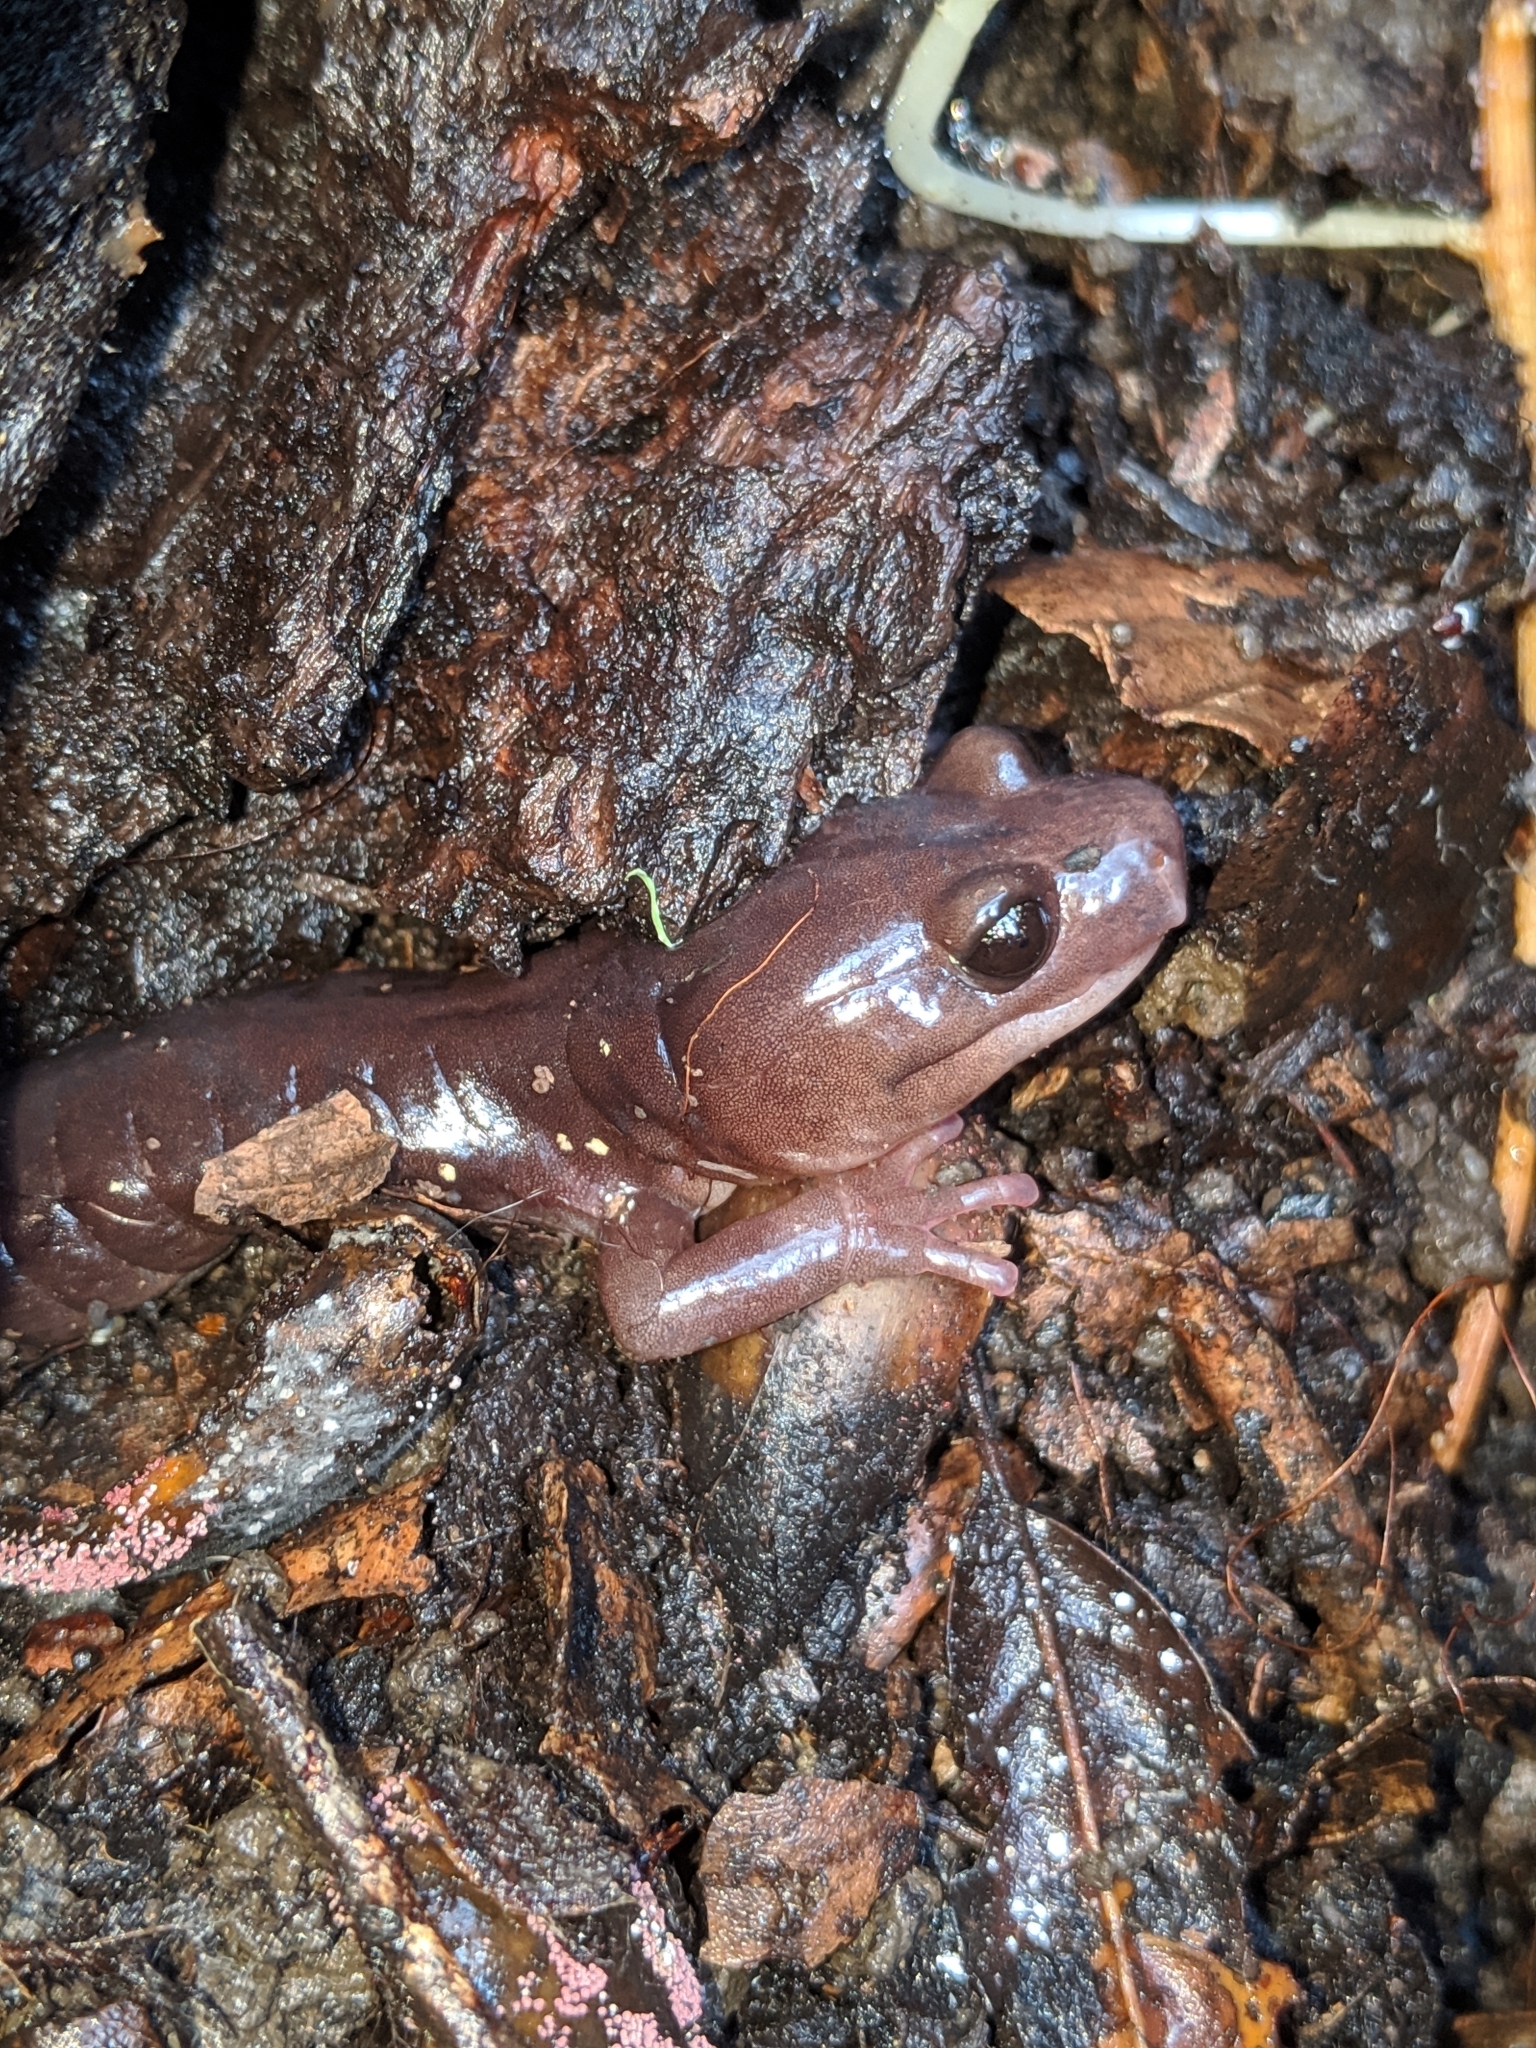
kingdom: Animalia
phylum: Chordata
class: Amphibia
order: Caudata
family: Plethodontidae
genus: Aneides
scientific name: Aneides lugubris
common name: Arboreal salamander
